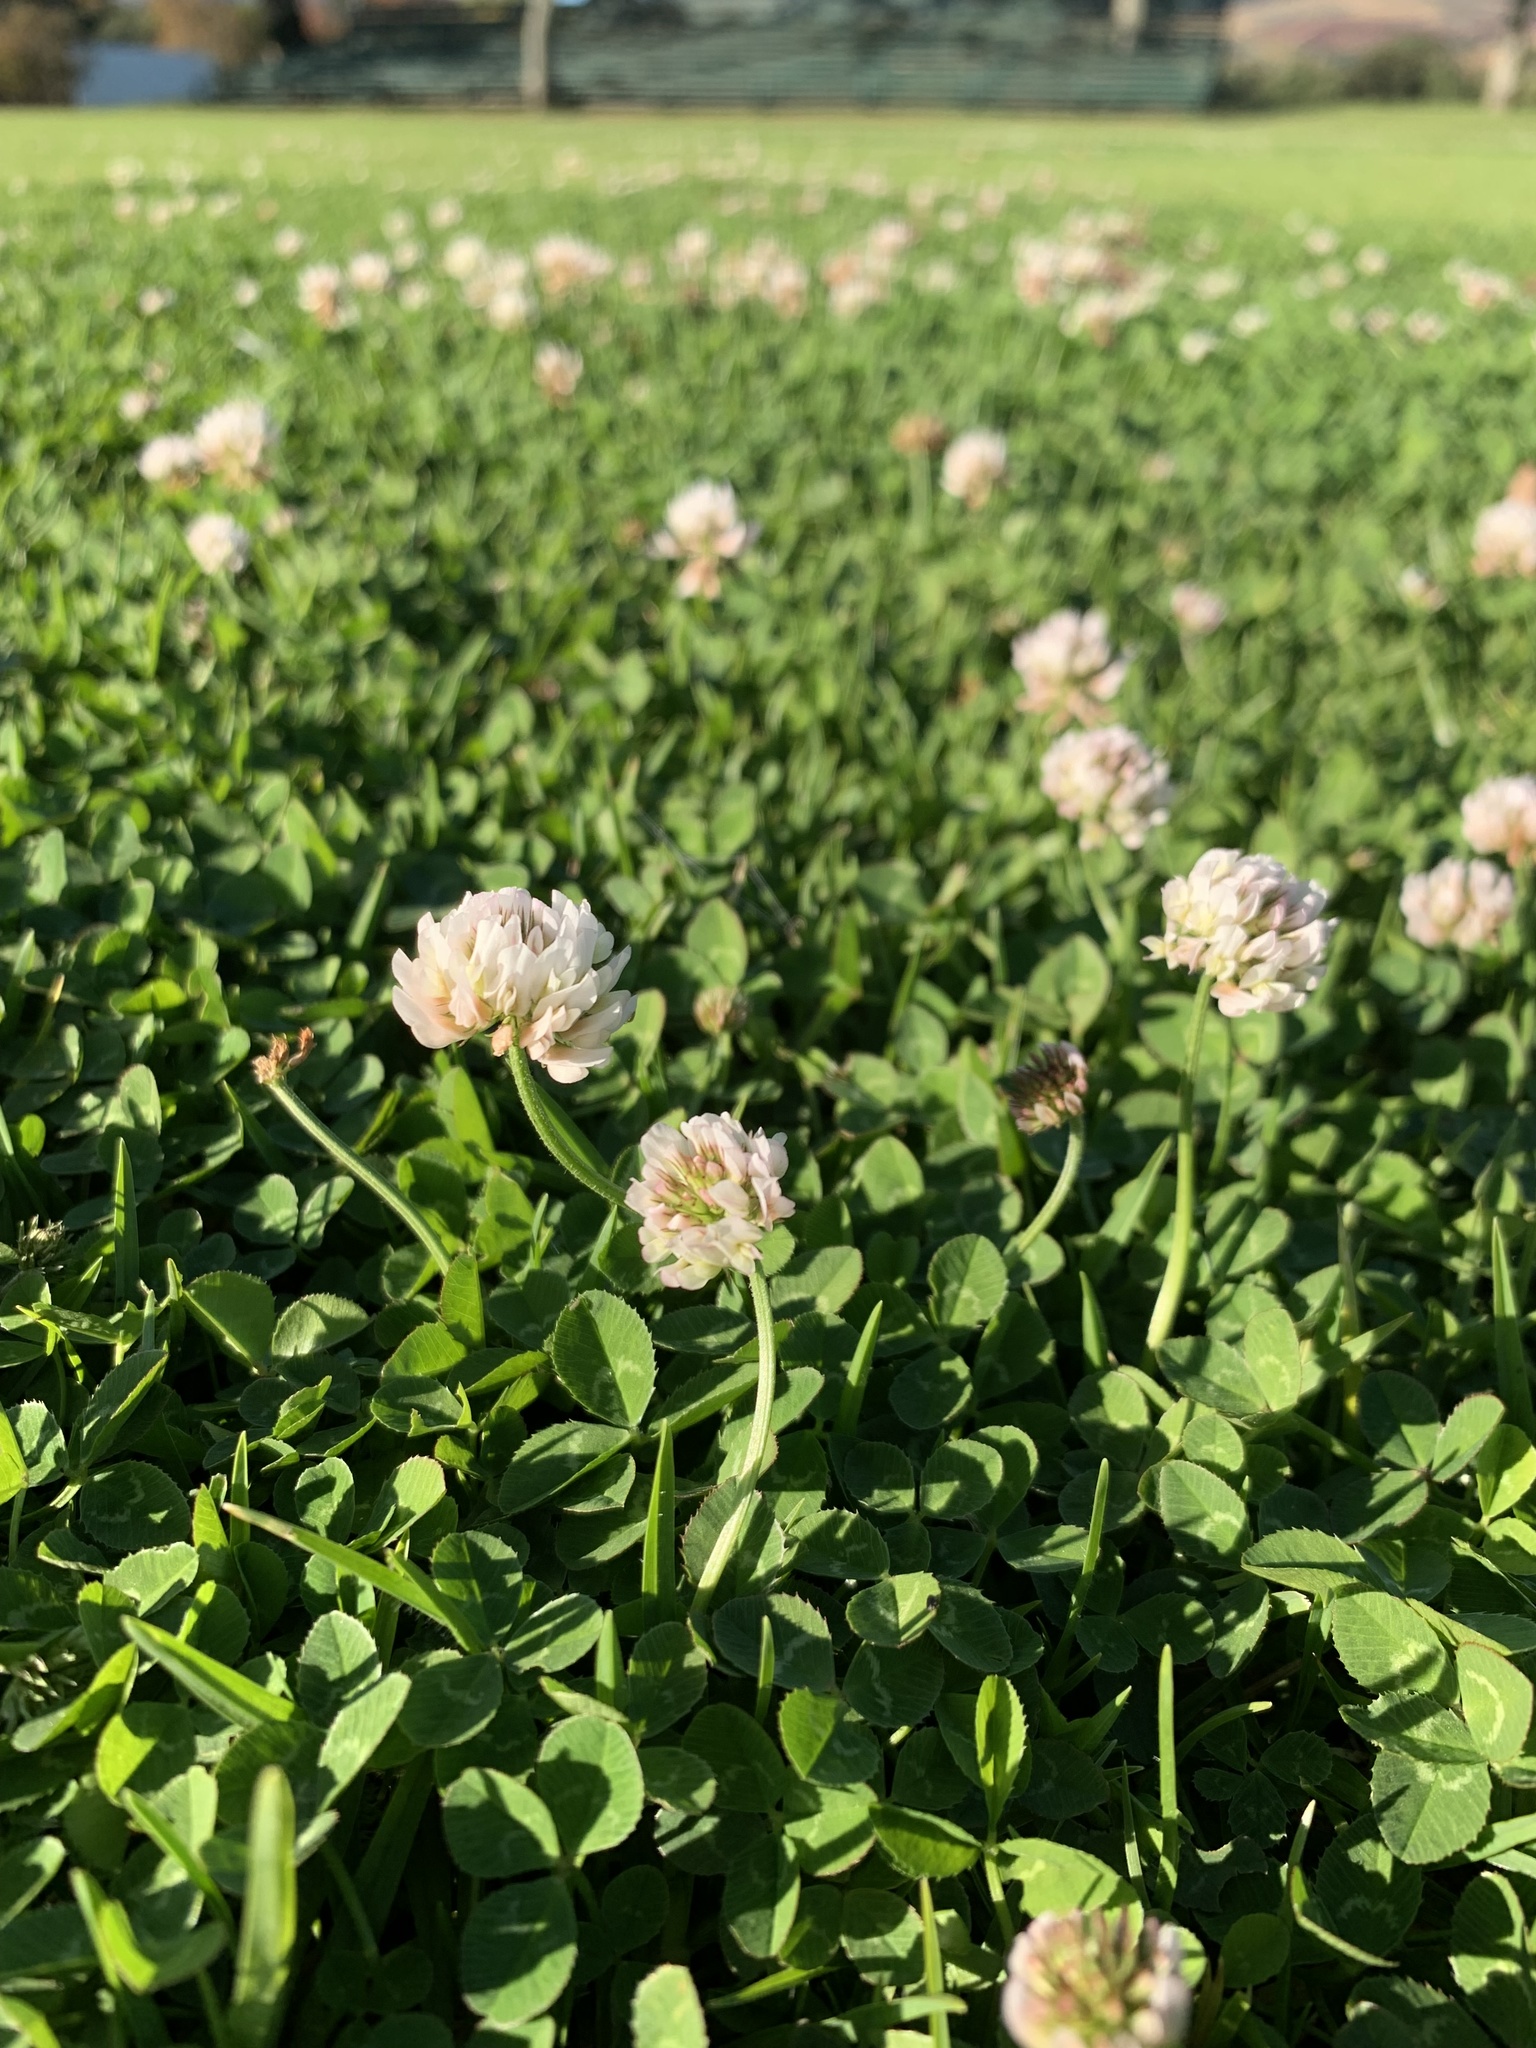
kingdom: Plantae
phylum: Tracheophyta
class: Magnoliopsida
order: Fabales
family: Fabaceae
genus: Trifolium
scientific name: Trifolium repens
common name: White clover
